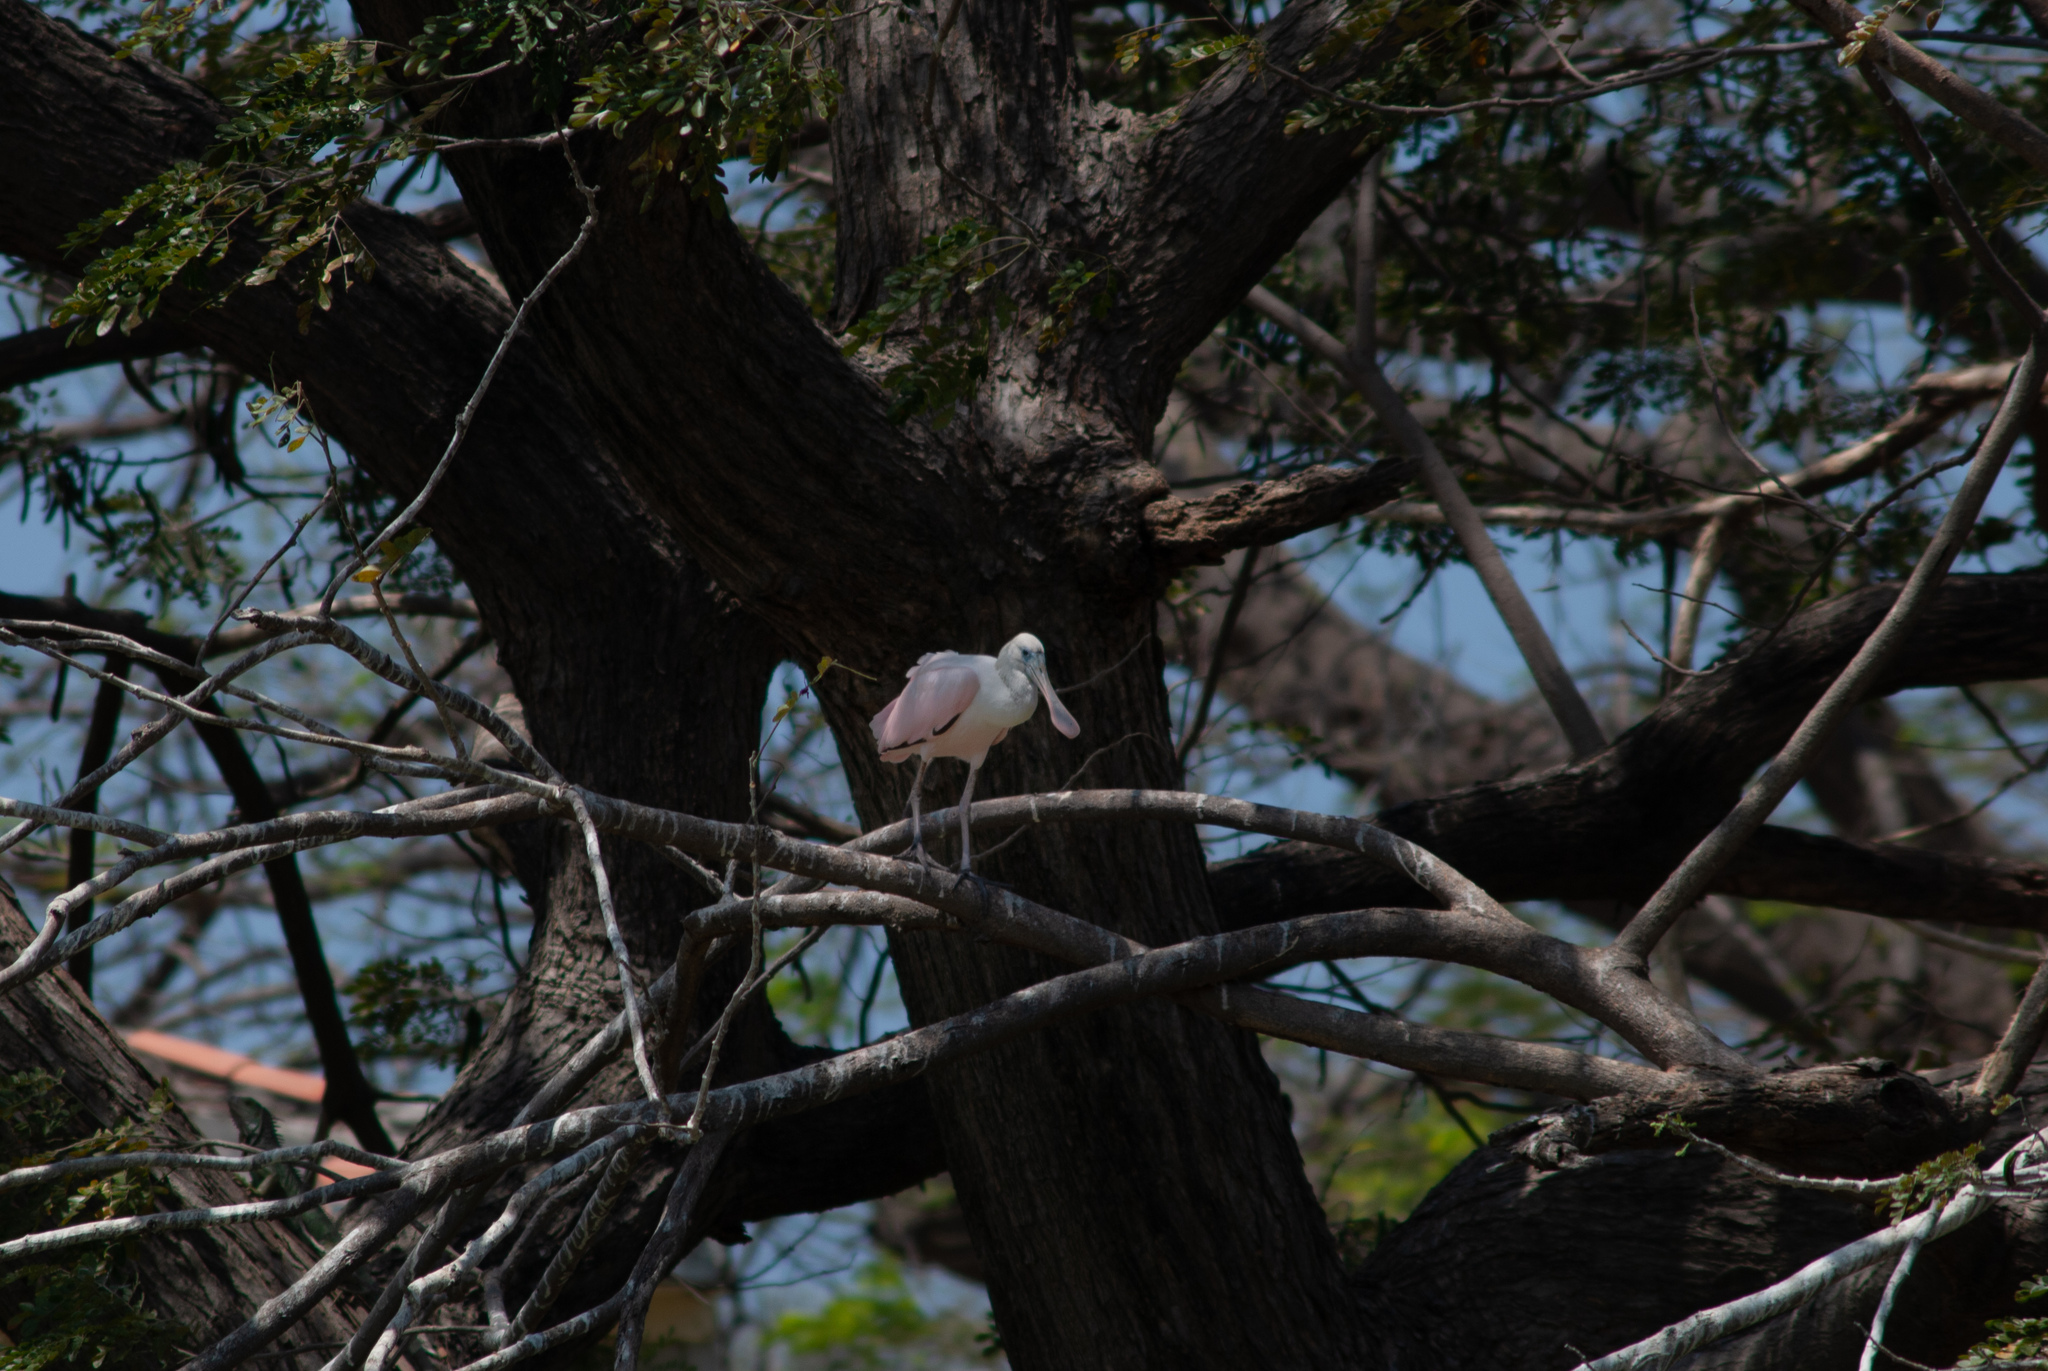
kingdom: Animalia
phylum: Chordata
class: Aves
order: Pelecaniformes
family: Threskiornithidae
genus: Platalea
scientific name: Platalea ajaja
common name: Roseate spoonbill
